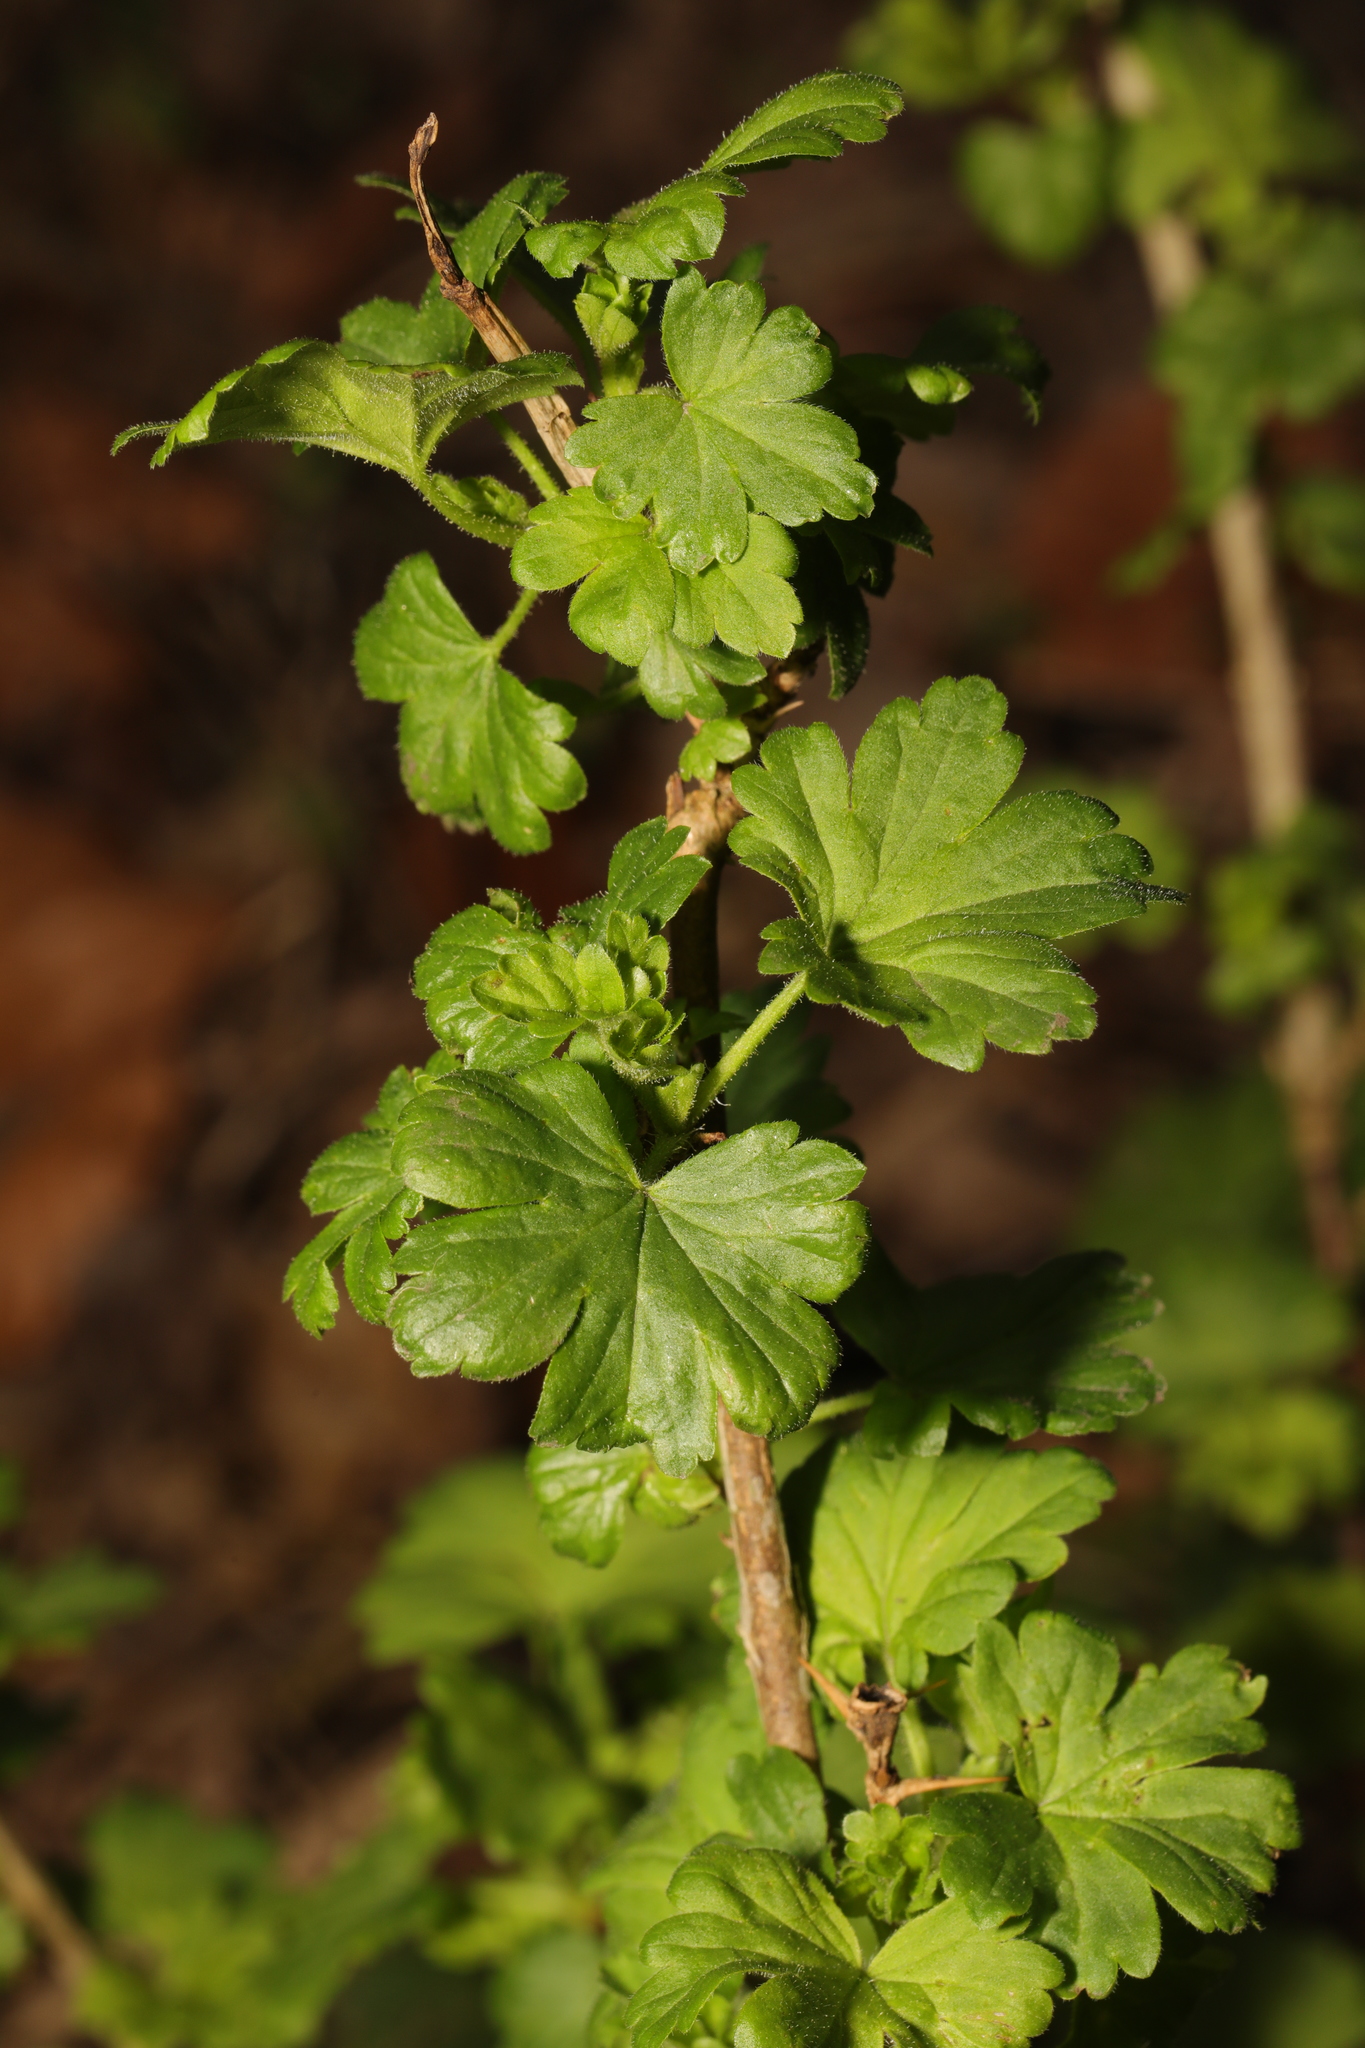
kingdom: Plantae
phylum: Tracheophyta
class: Magnoliopsida
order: Saxifragales
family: Grossulariaceae
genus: Ribes
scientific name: Ribes uva-crispa
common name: Gooseberry
